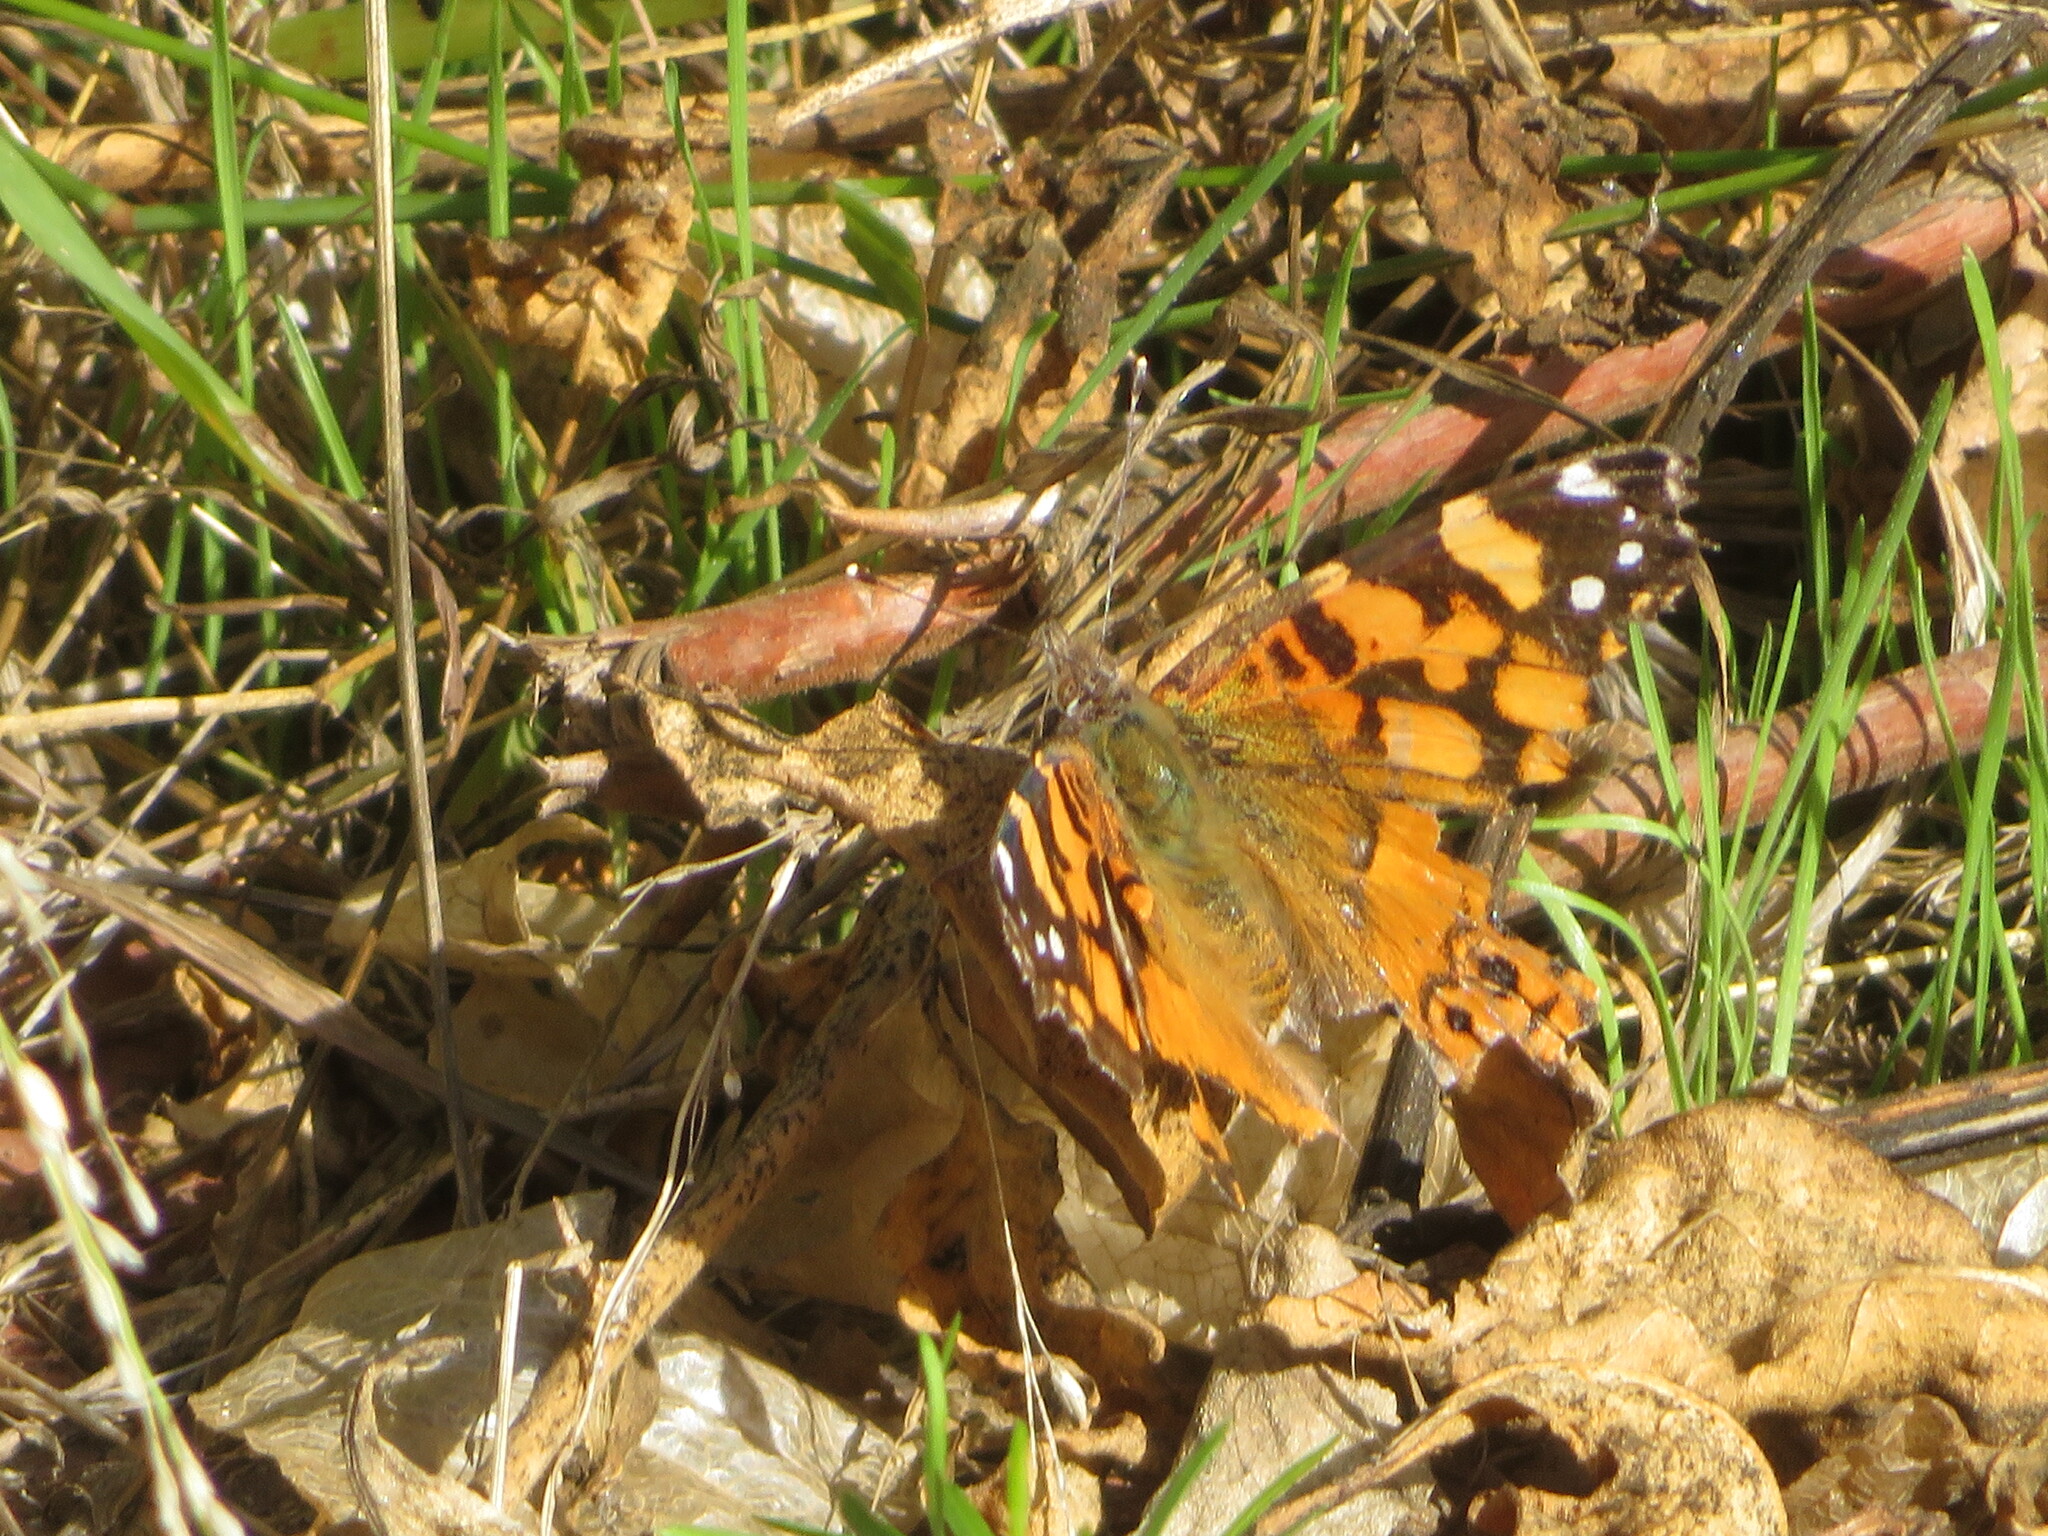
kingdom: Animalia
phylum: Arthropoda
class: Insecta
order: Lepidoptera
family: Nymphalidae
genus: Vanessa
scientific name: Vanessa annabella
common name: West coast lady
